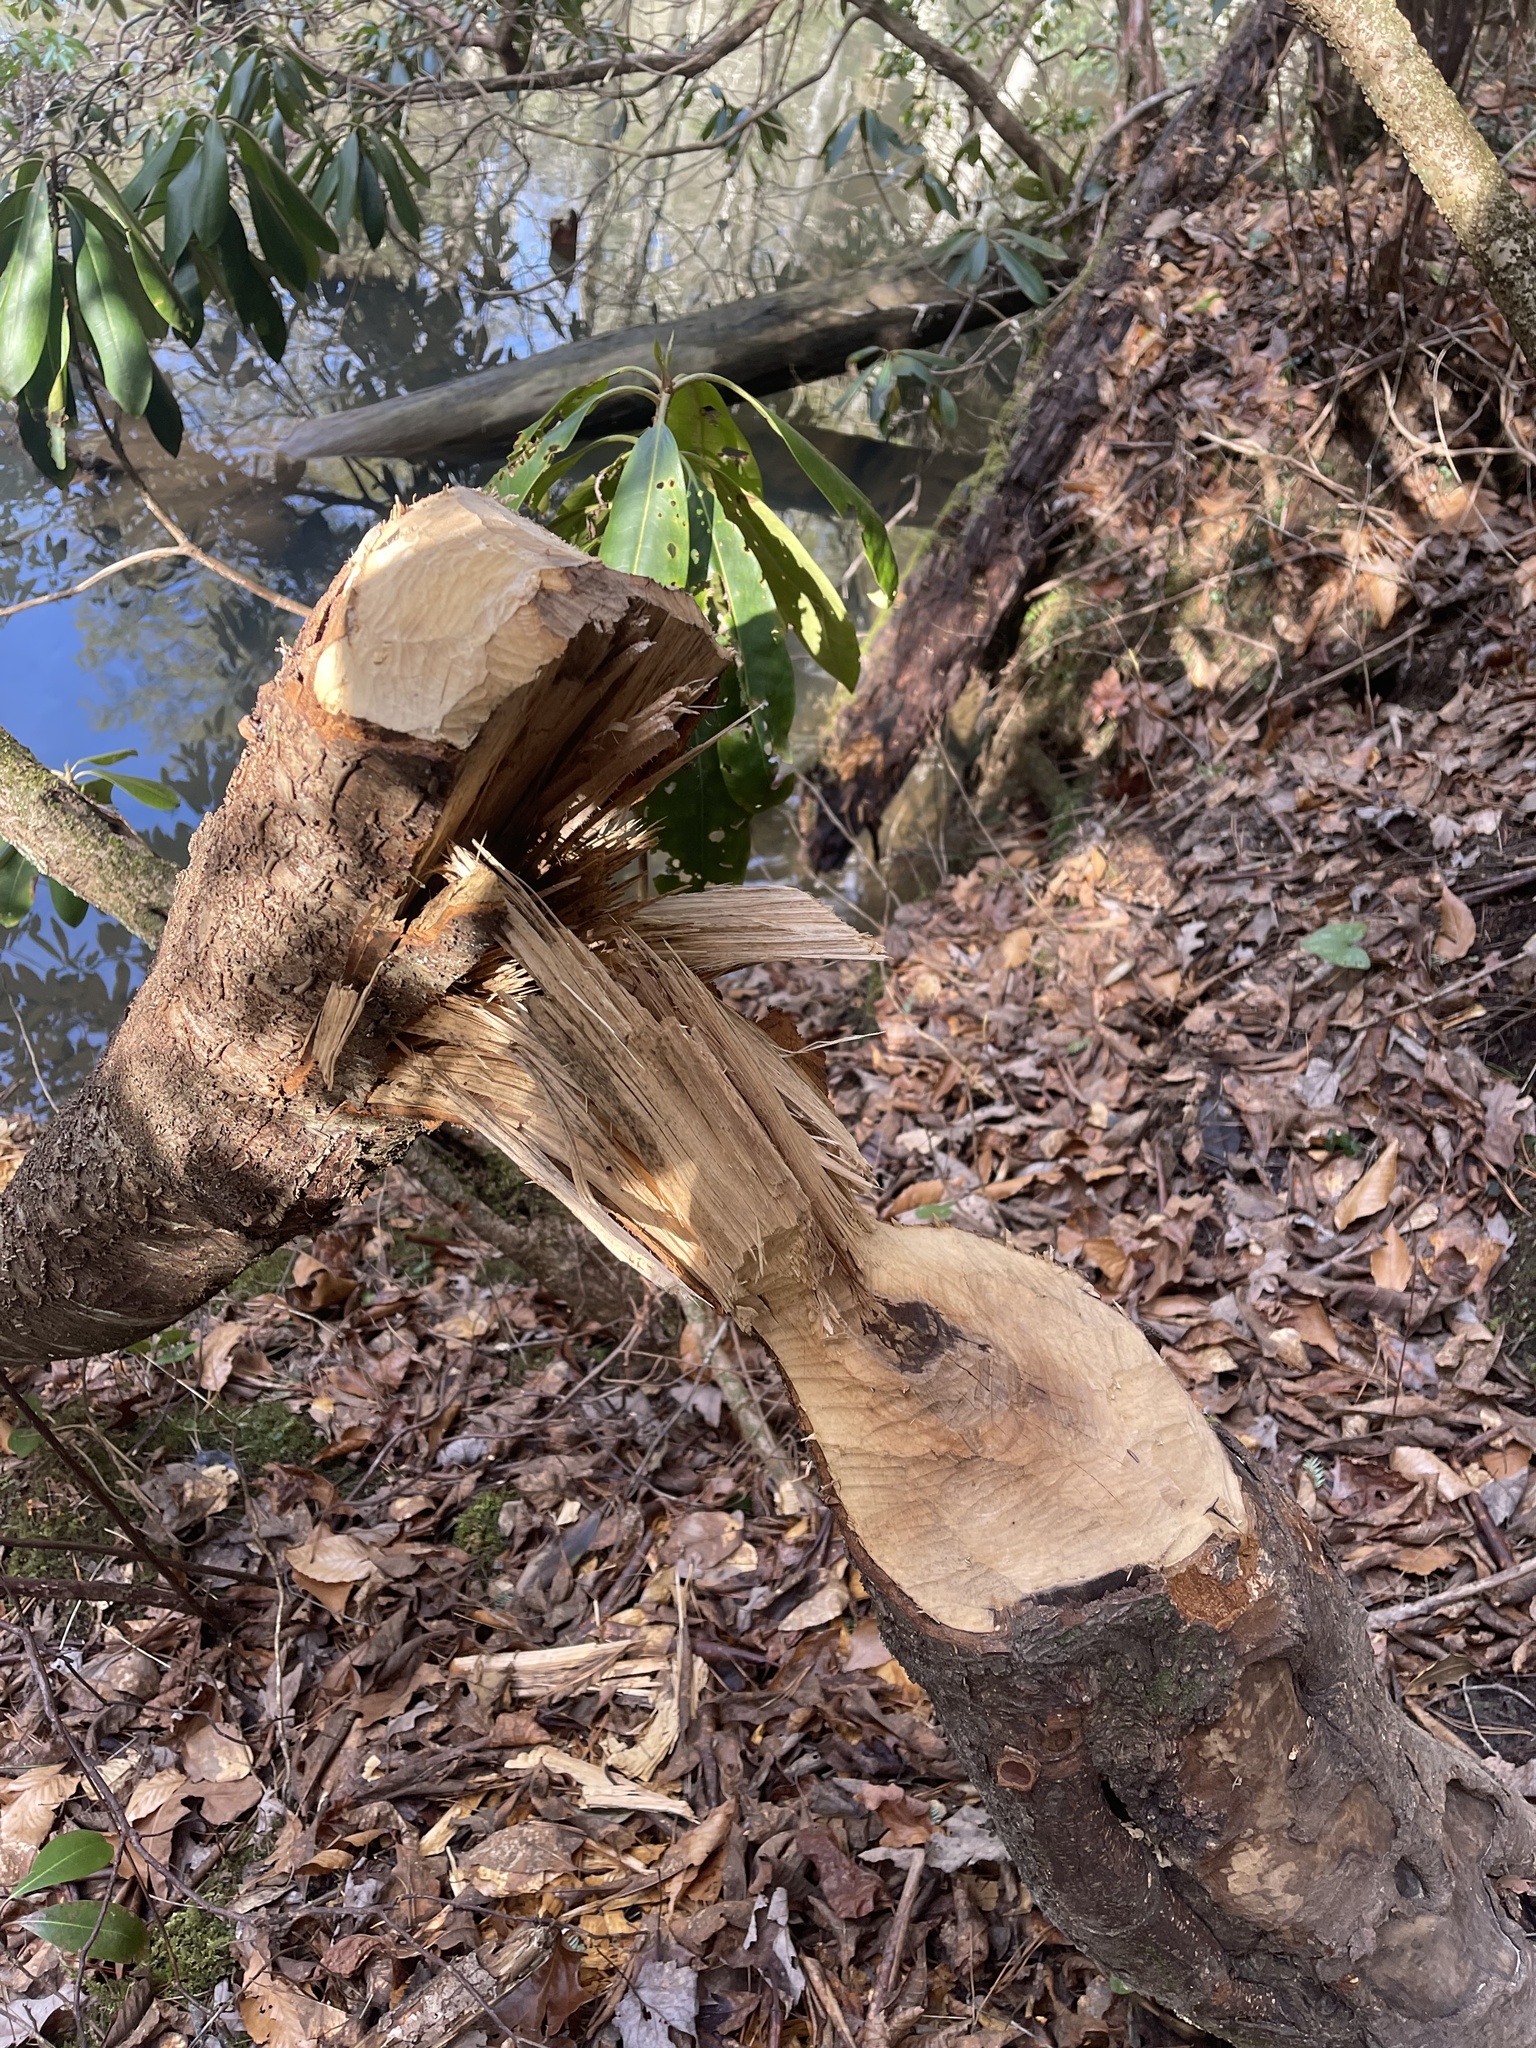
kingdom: Animalia
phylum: Chordata
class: Mammalia
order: Rodentia
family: Castoridae
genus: Castor
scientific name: Castor canadensis
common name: American beaver
